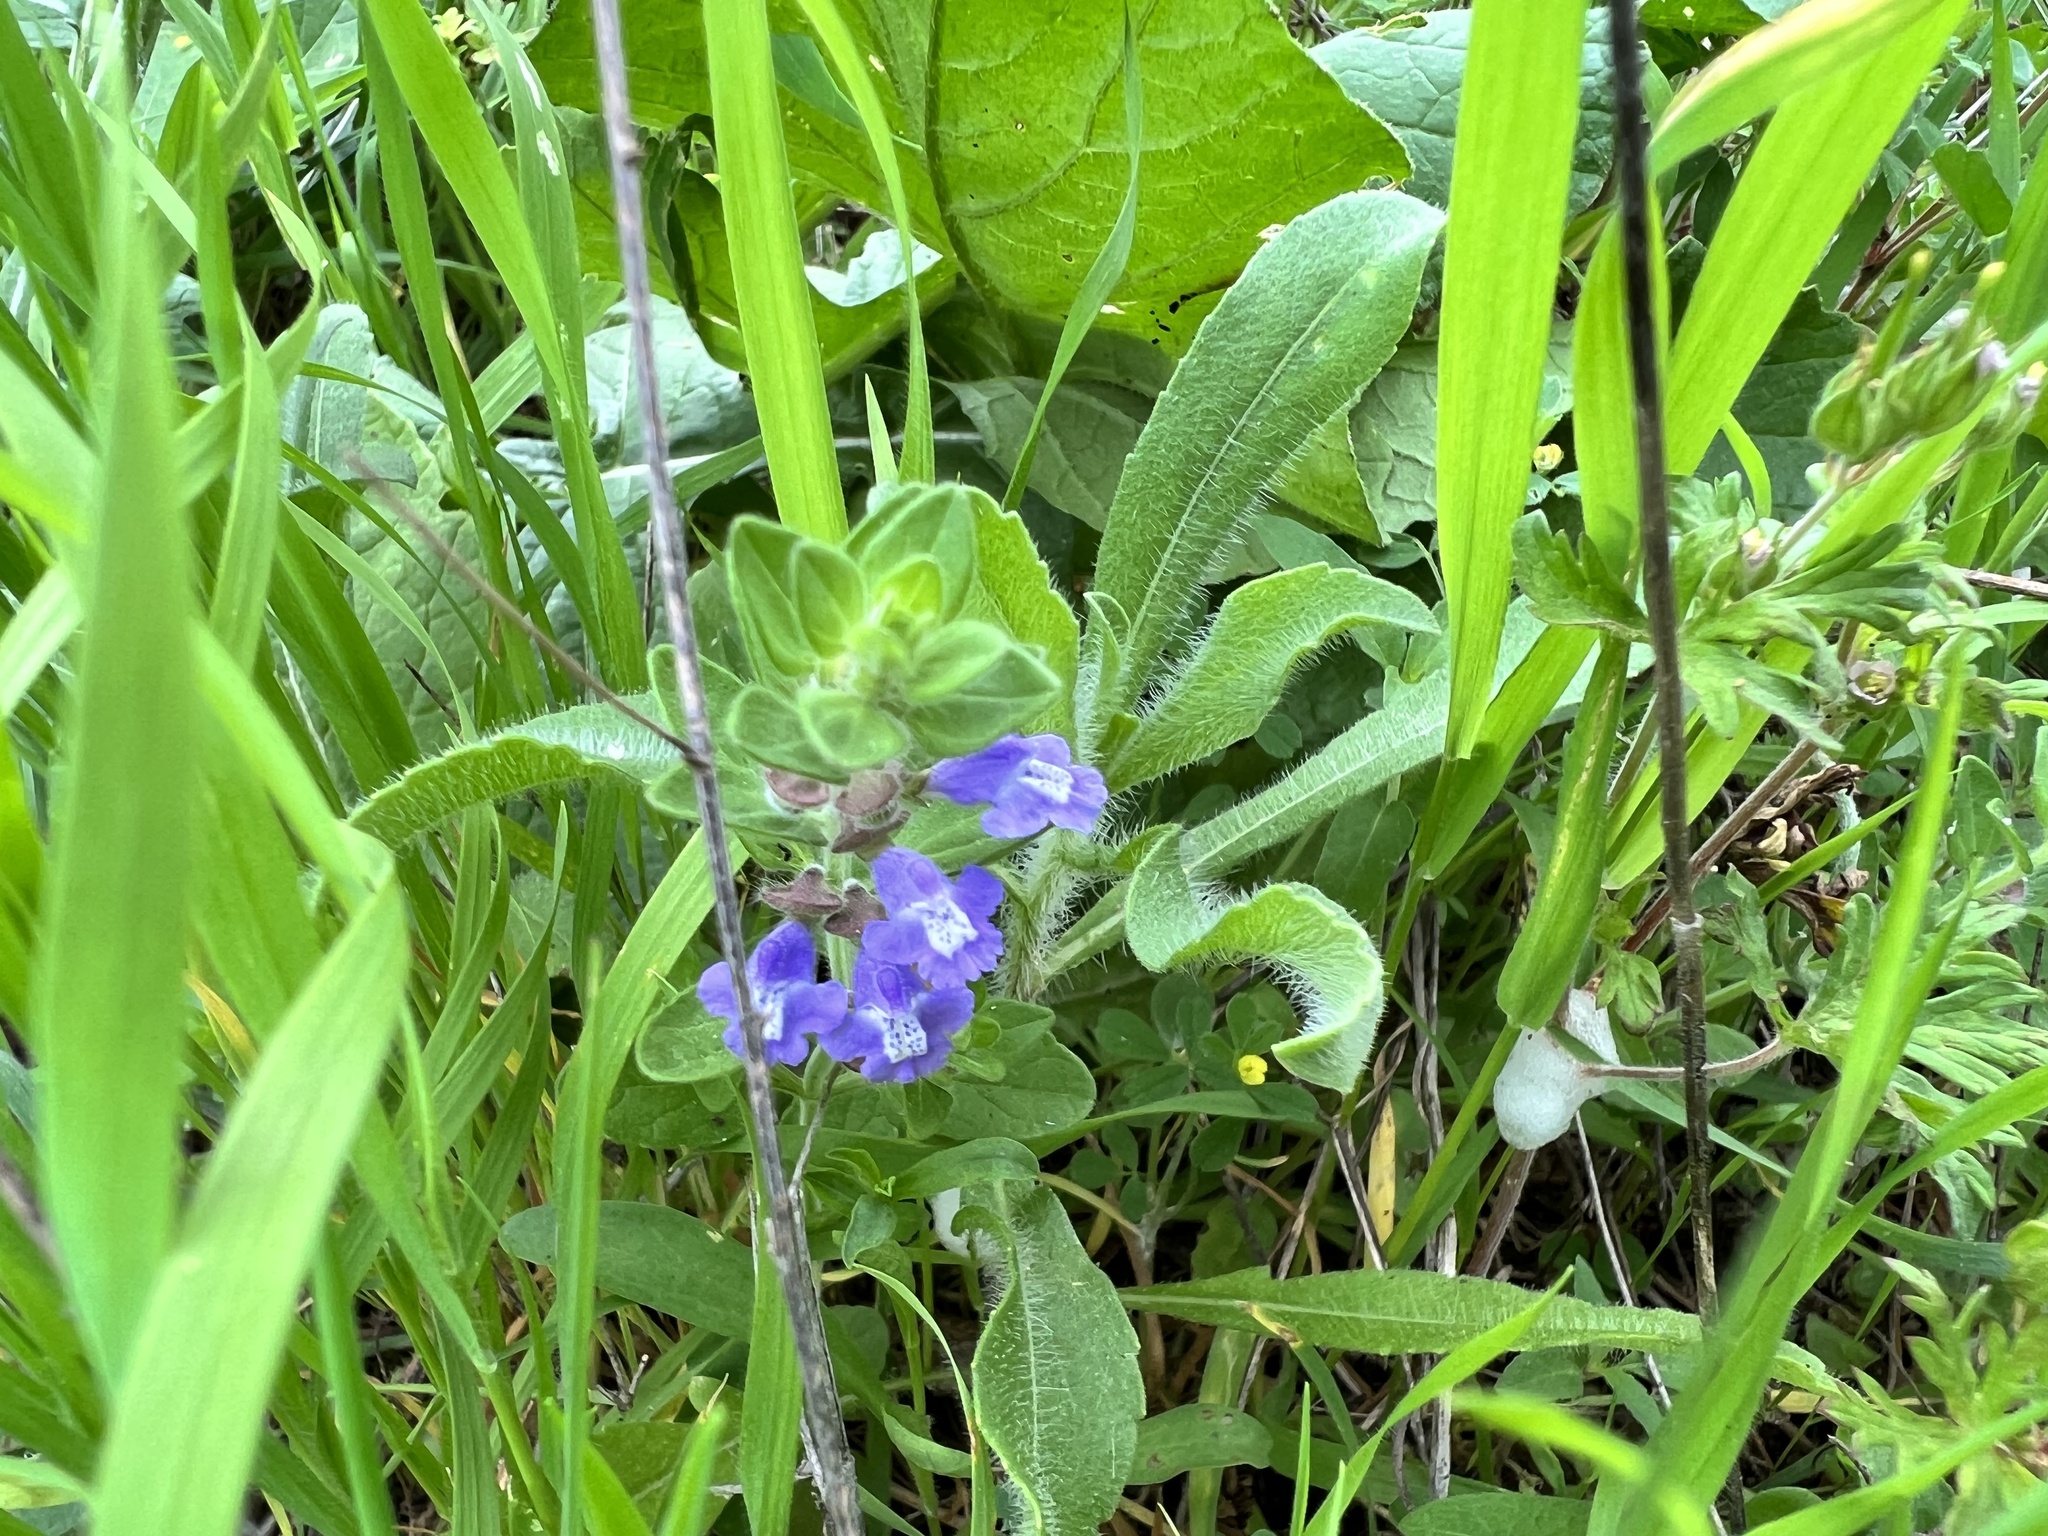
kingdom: Plantae
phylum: Tracheophyta
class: Magnoliopsida
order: Lamiales
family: Lamiaceae
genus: Scutellaria
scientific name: Scutellaria drummondii
